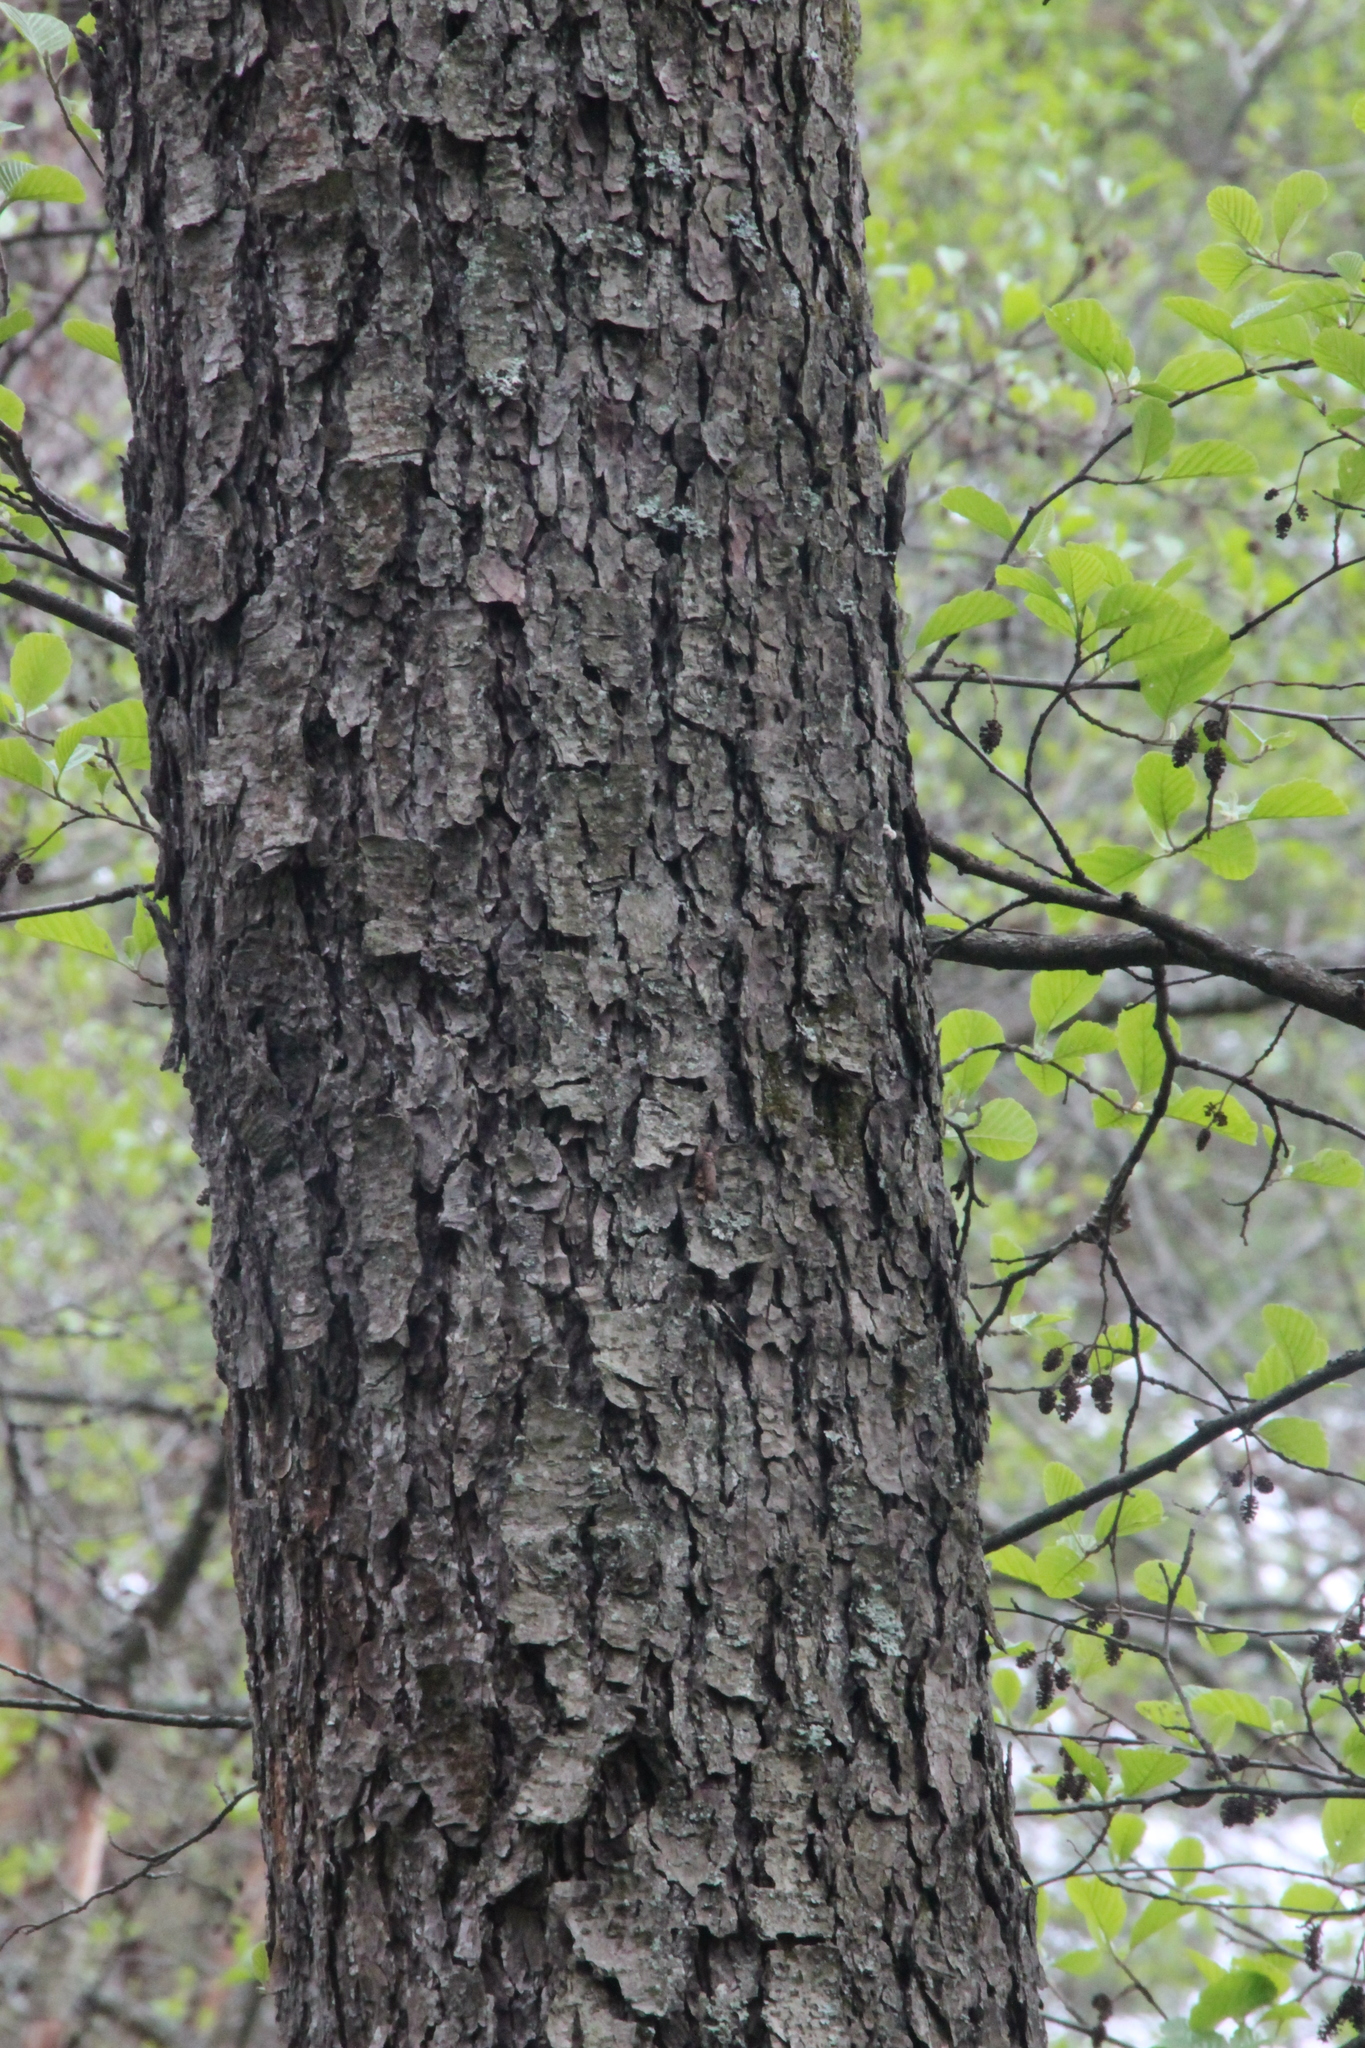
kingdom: Plantae
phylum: Tracheophyta
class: Magnoliopsida
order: Fagales
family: Betulaceae
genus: Alnus
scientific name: Alnus glutinosa
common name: Black alder
